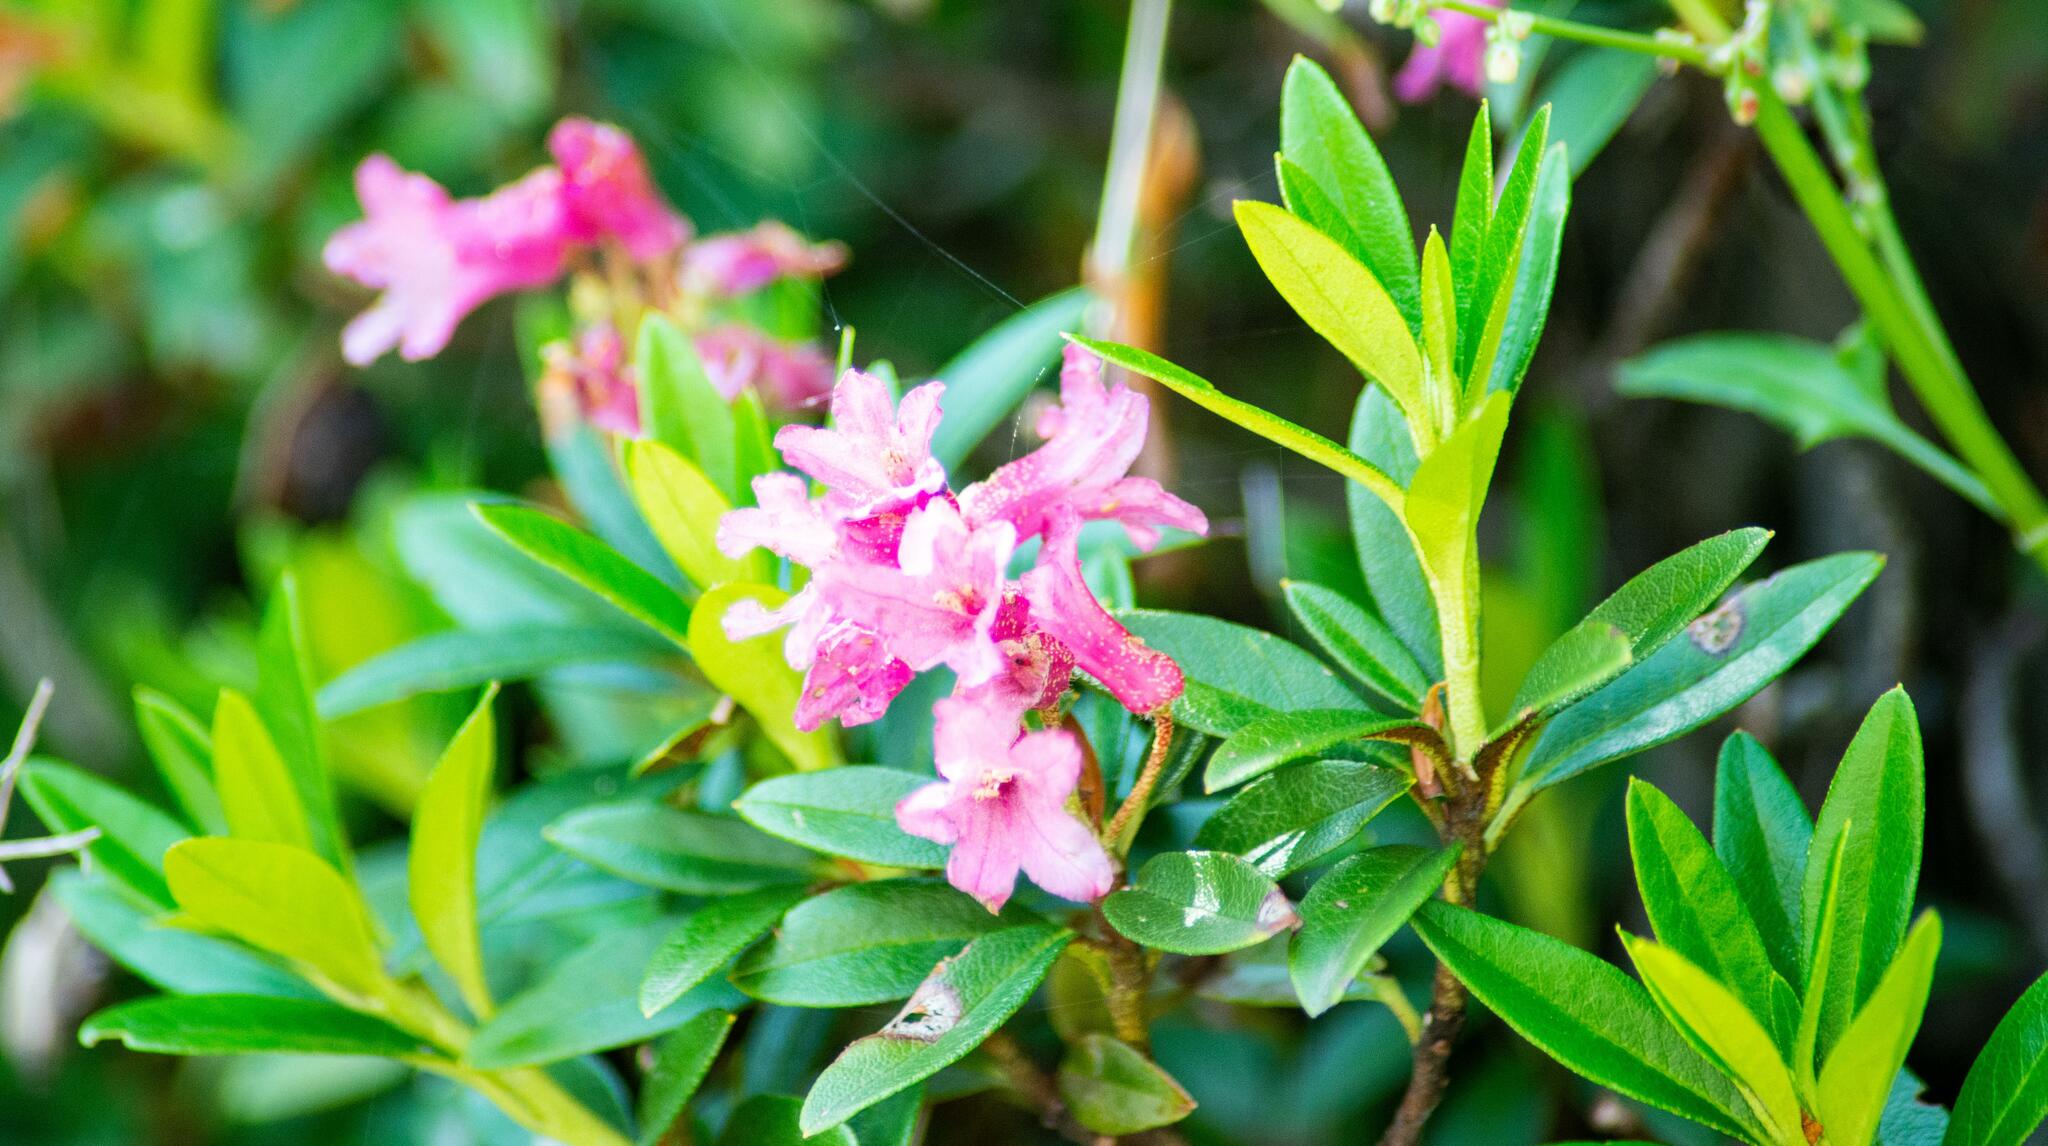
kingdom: Plantae
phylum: Tracheophyta
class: Magnoliopsida
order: Ericales
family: Ericaceae
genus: Rhododendron
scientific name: Rhododendron ferrugineum
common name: Alpenrose
